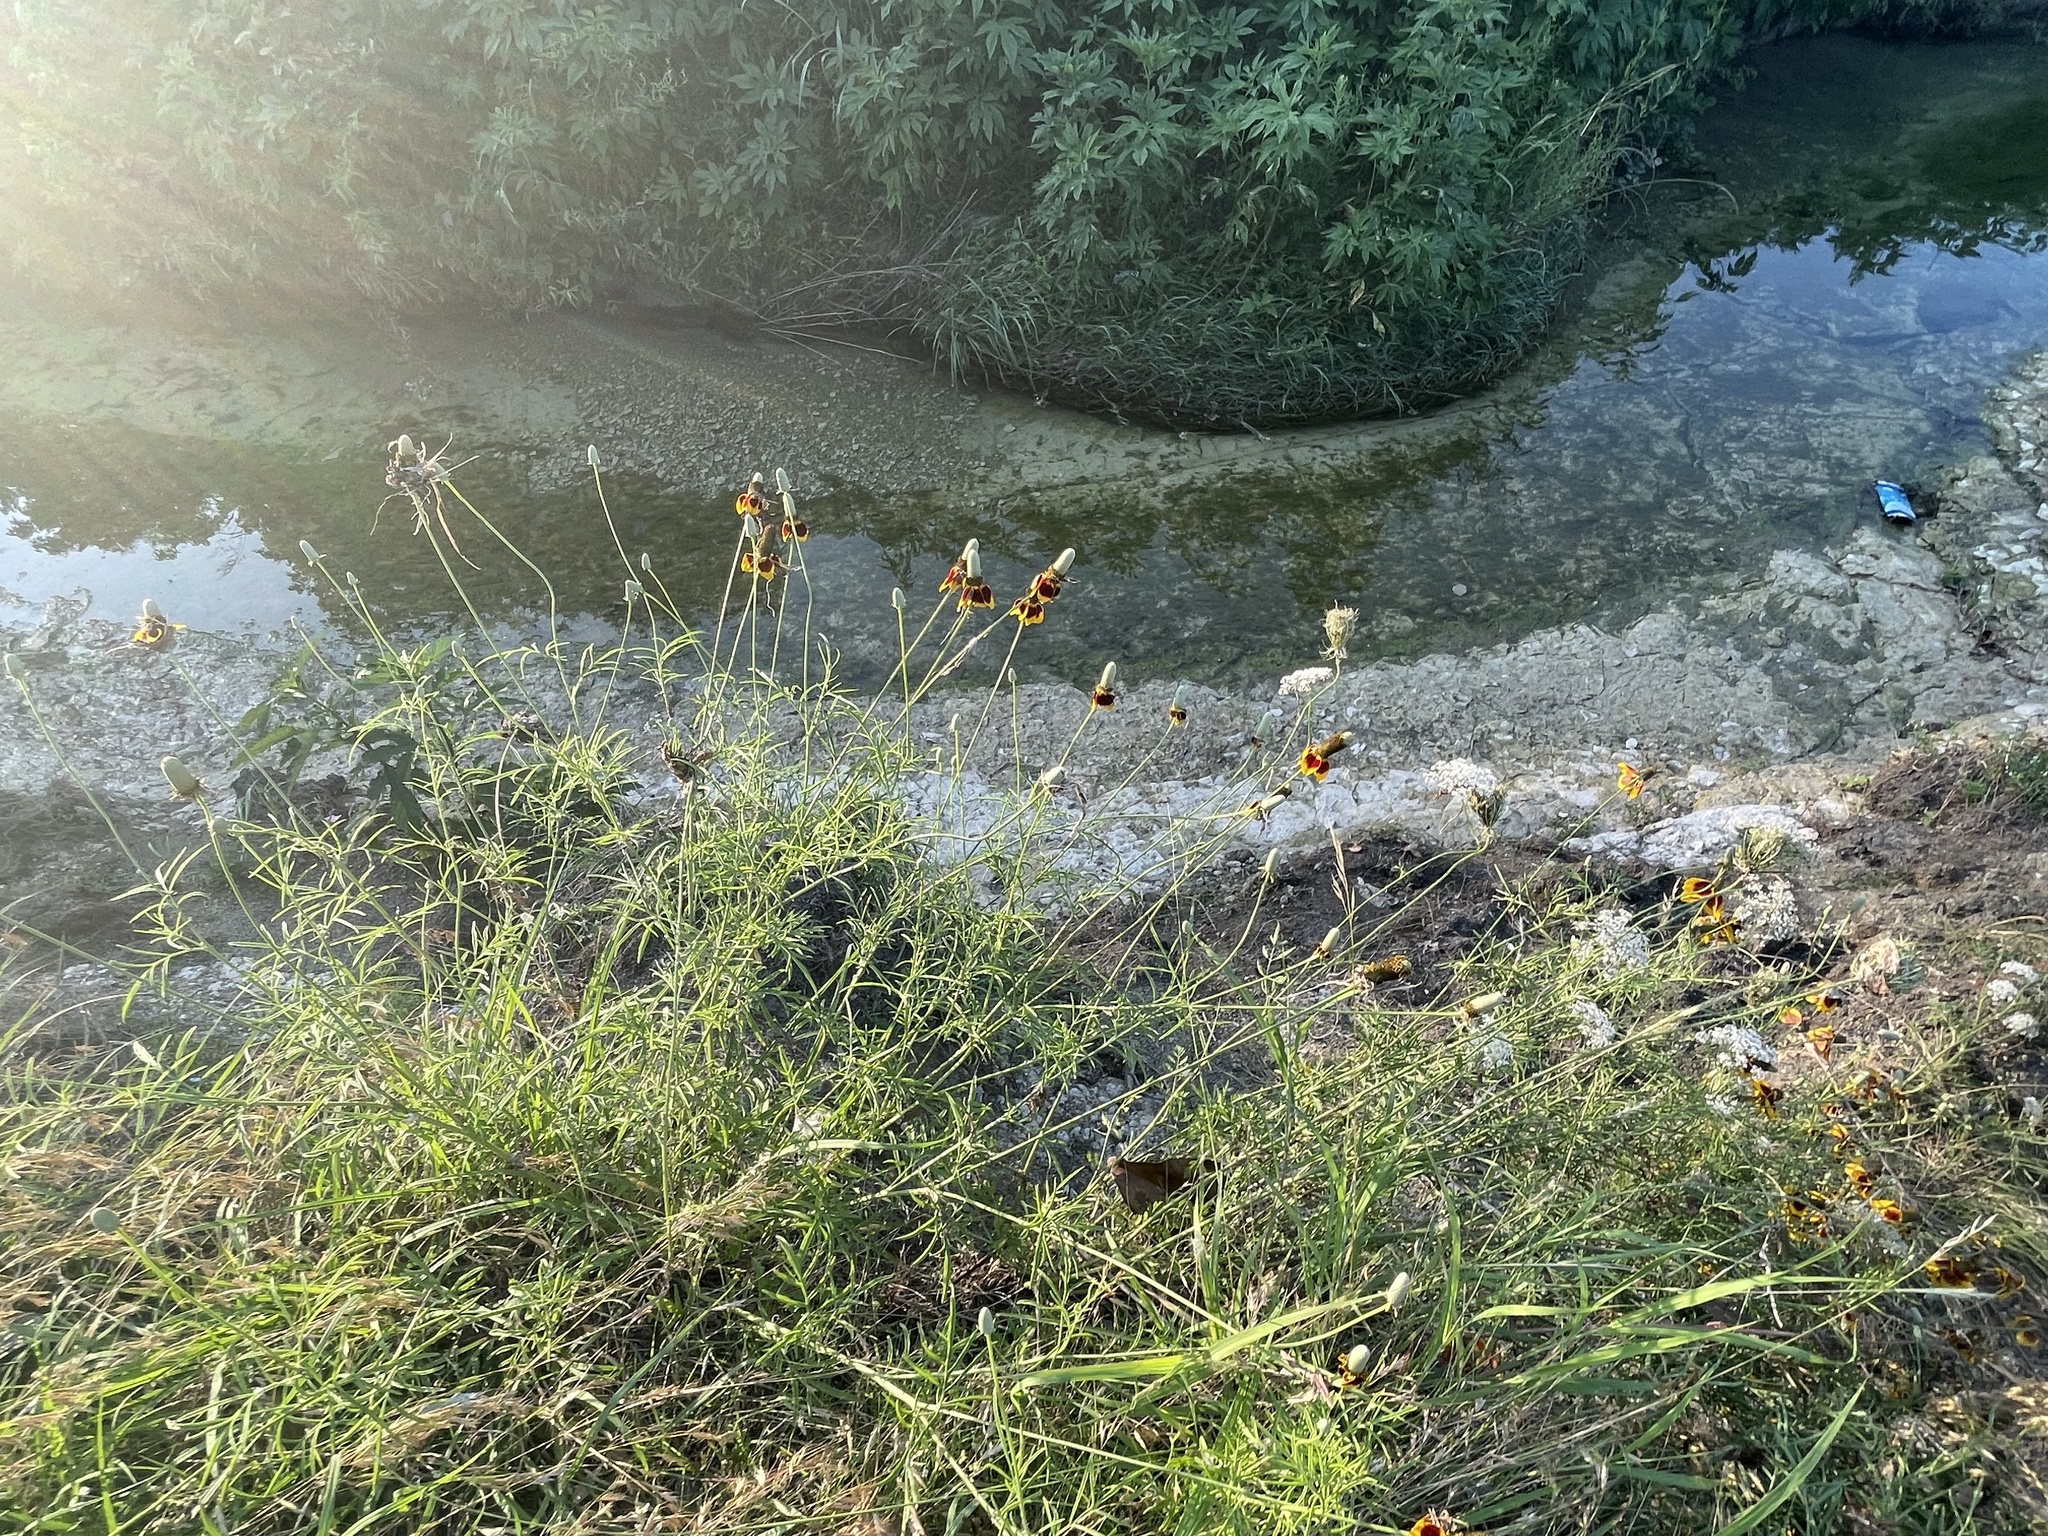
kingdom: Plantae
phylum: Tracheophyta
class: Magnoliopsida
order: Asterales
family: Asteraceae
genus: Ratibida
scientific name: Ratibida columnifera
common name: Prairie coneflower
